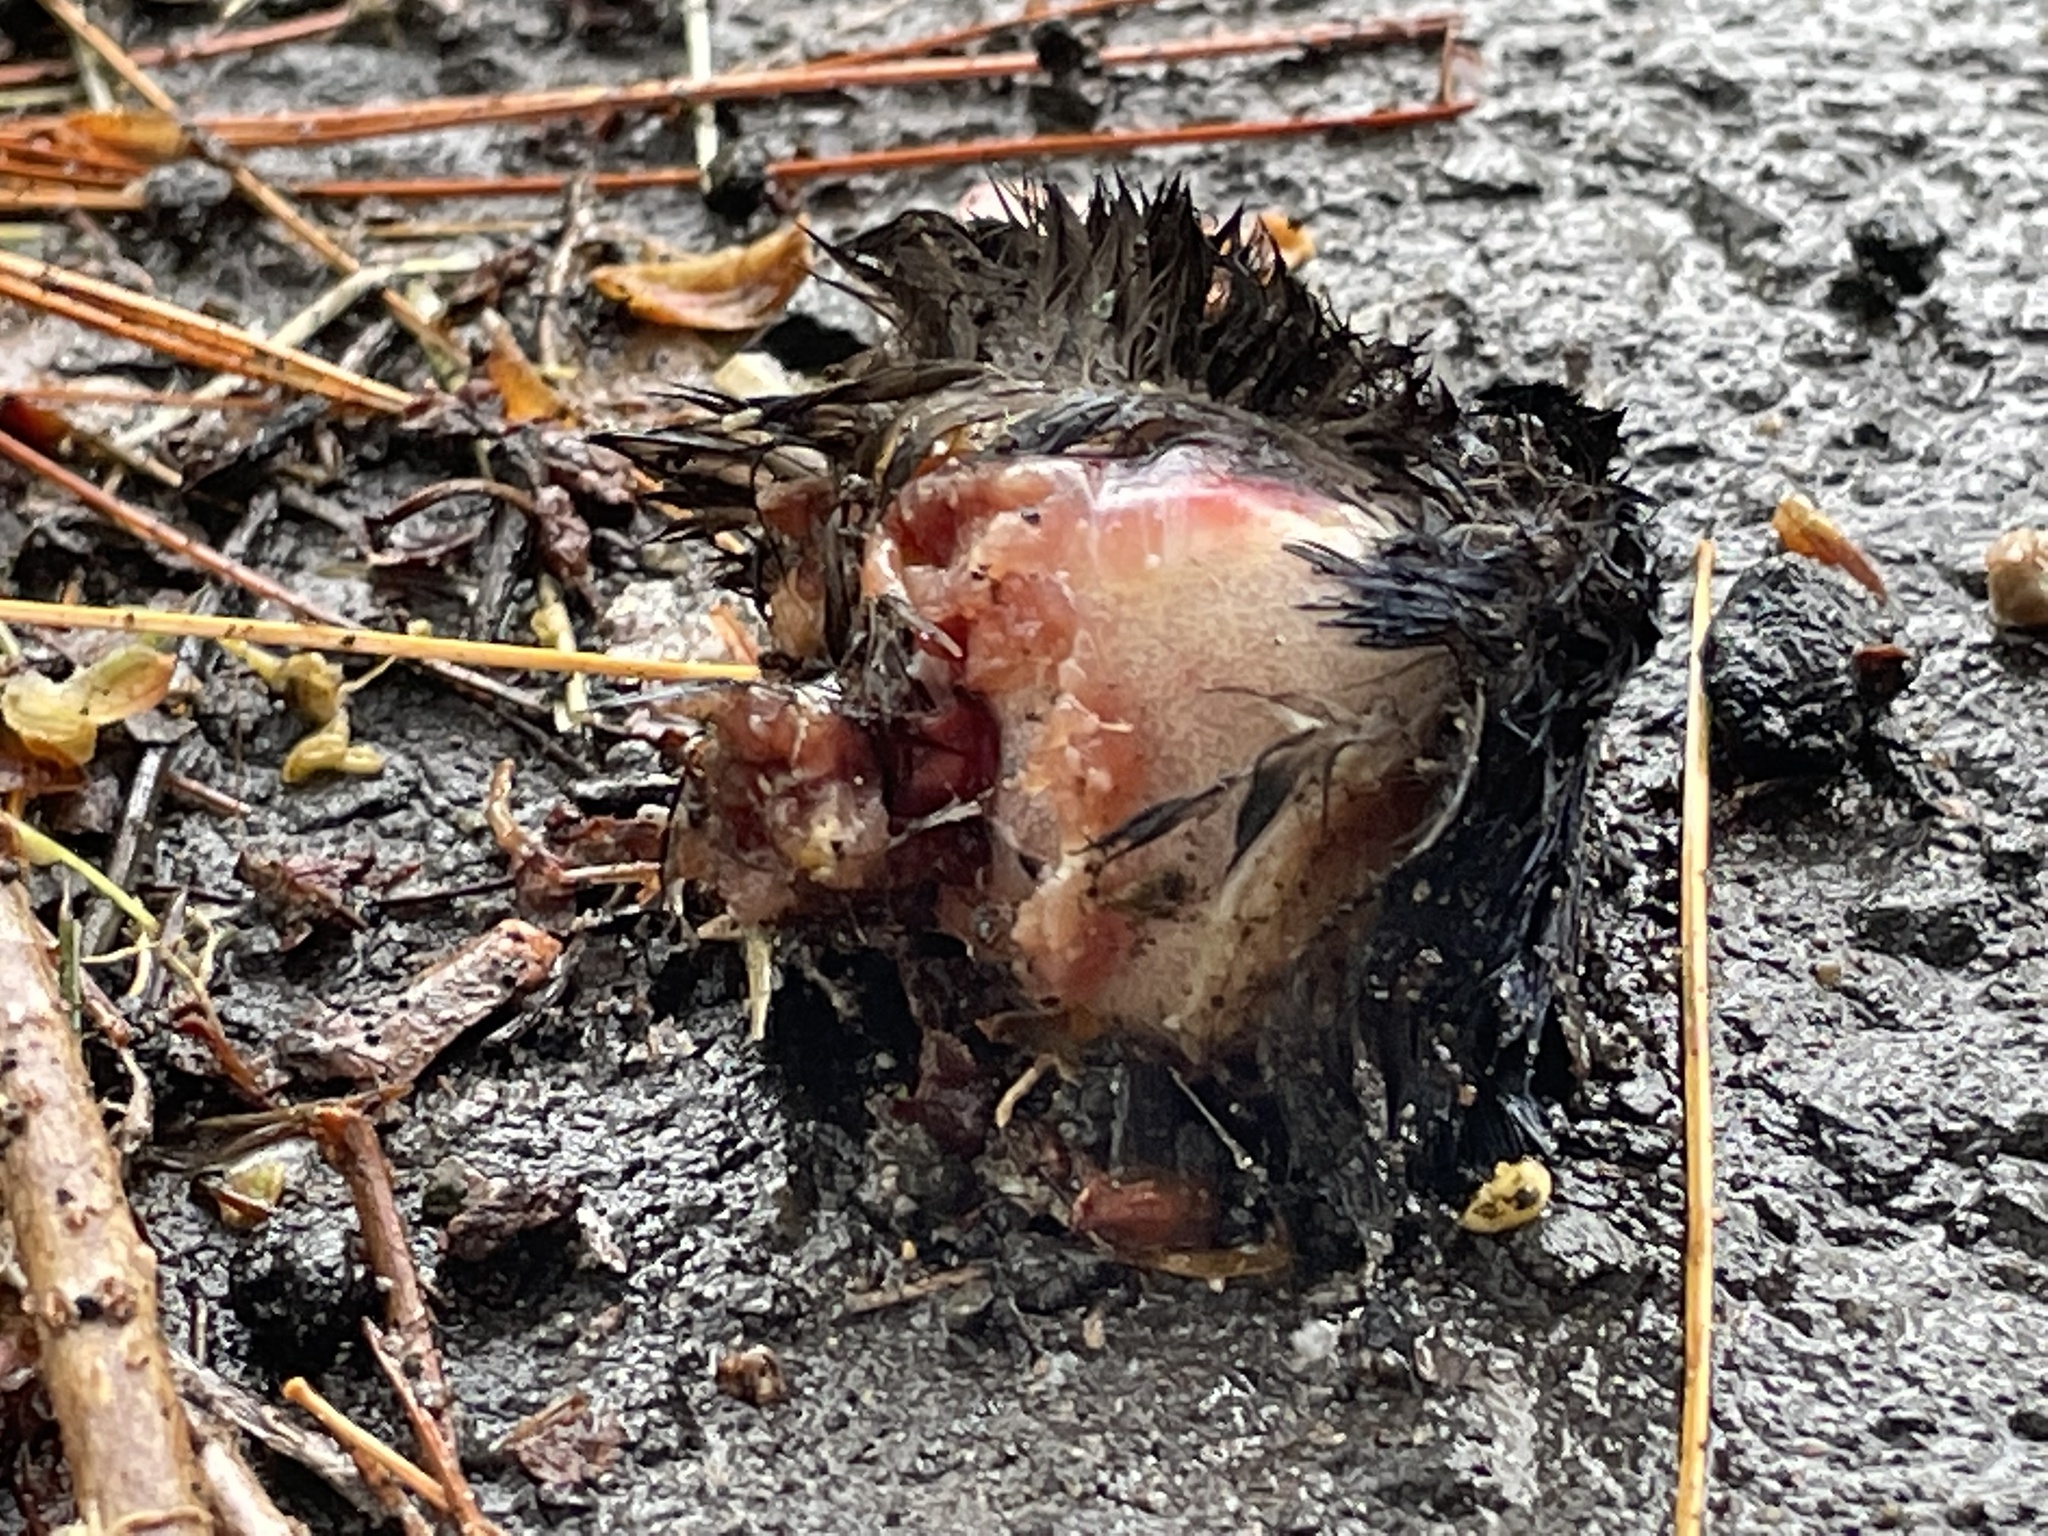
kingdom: Animalia
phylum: Chordata
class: Aves
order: Passeriformes
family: Icteridae
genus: Quiscalus
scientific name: Quiscalus quiscula
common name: Common grackle
